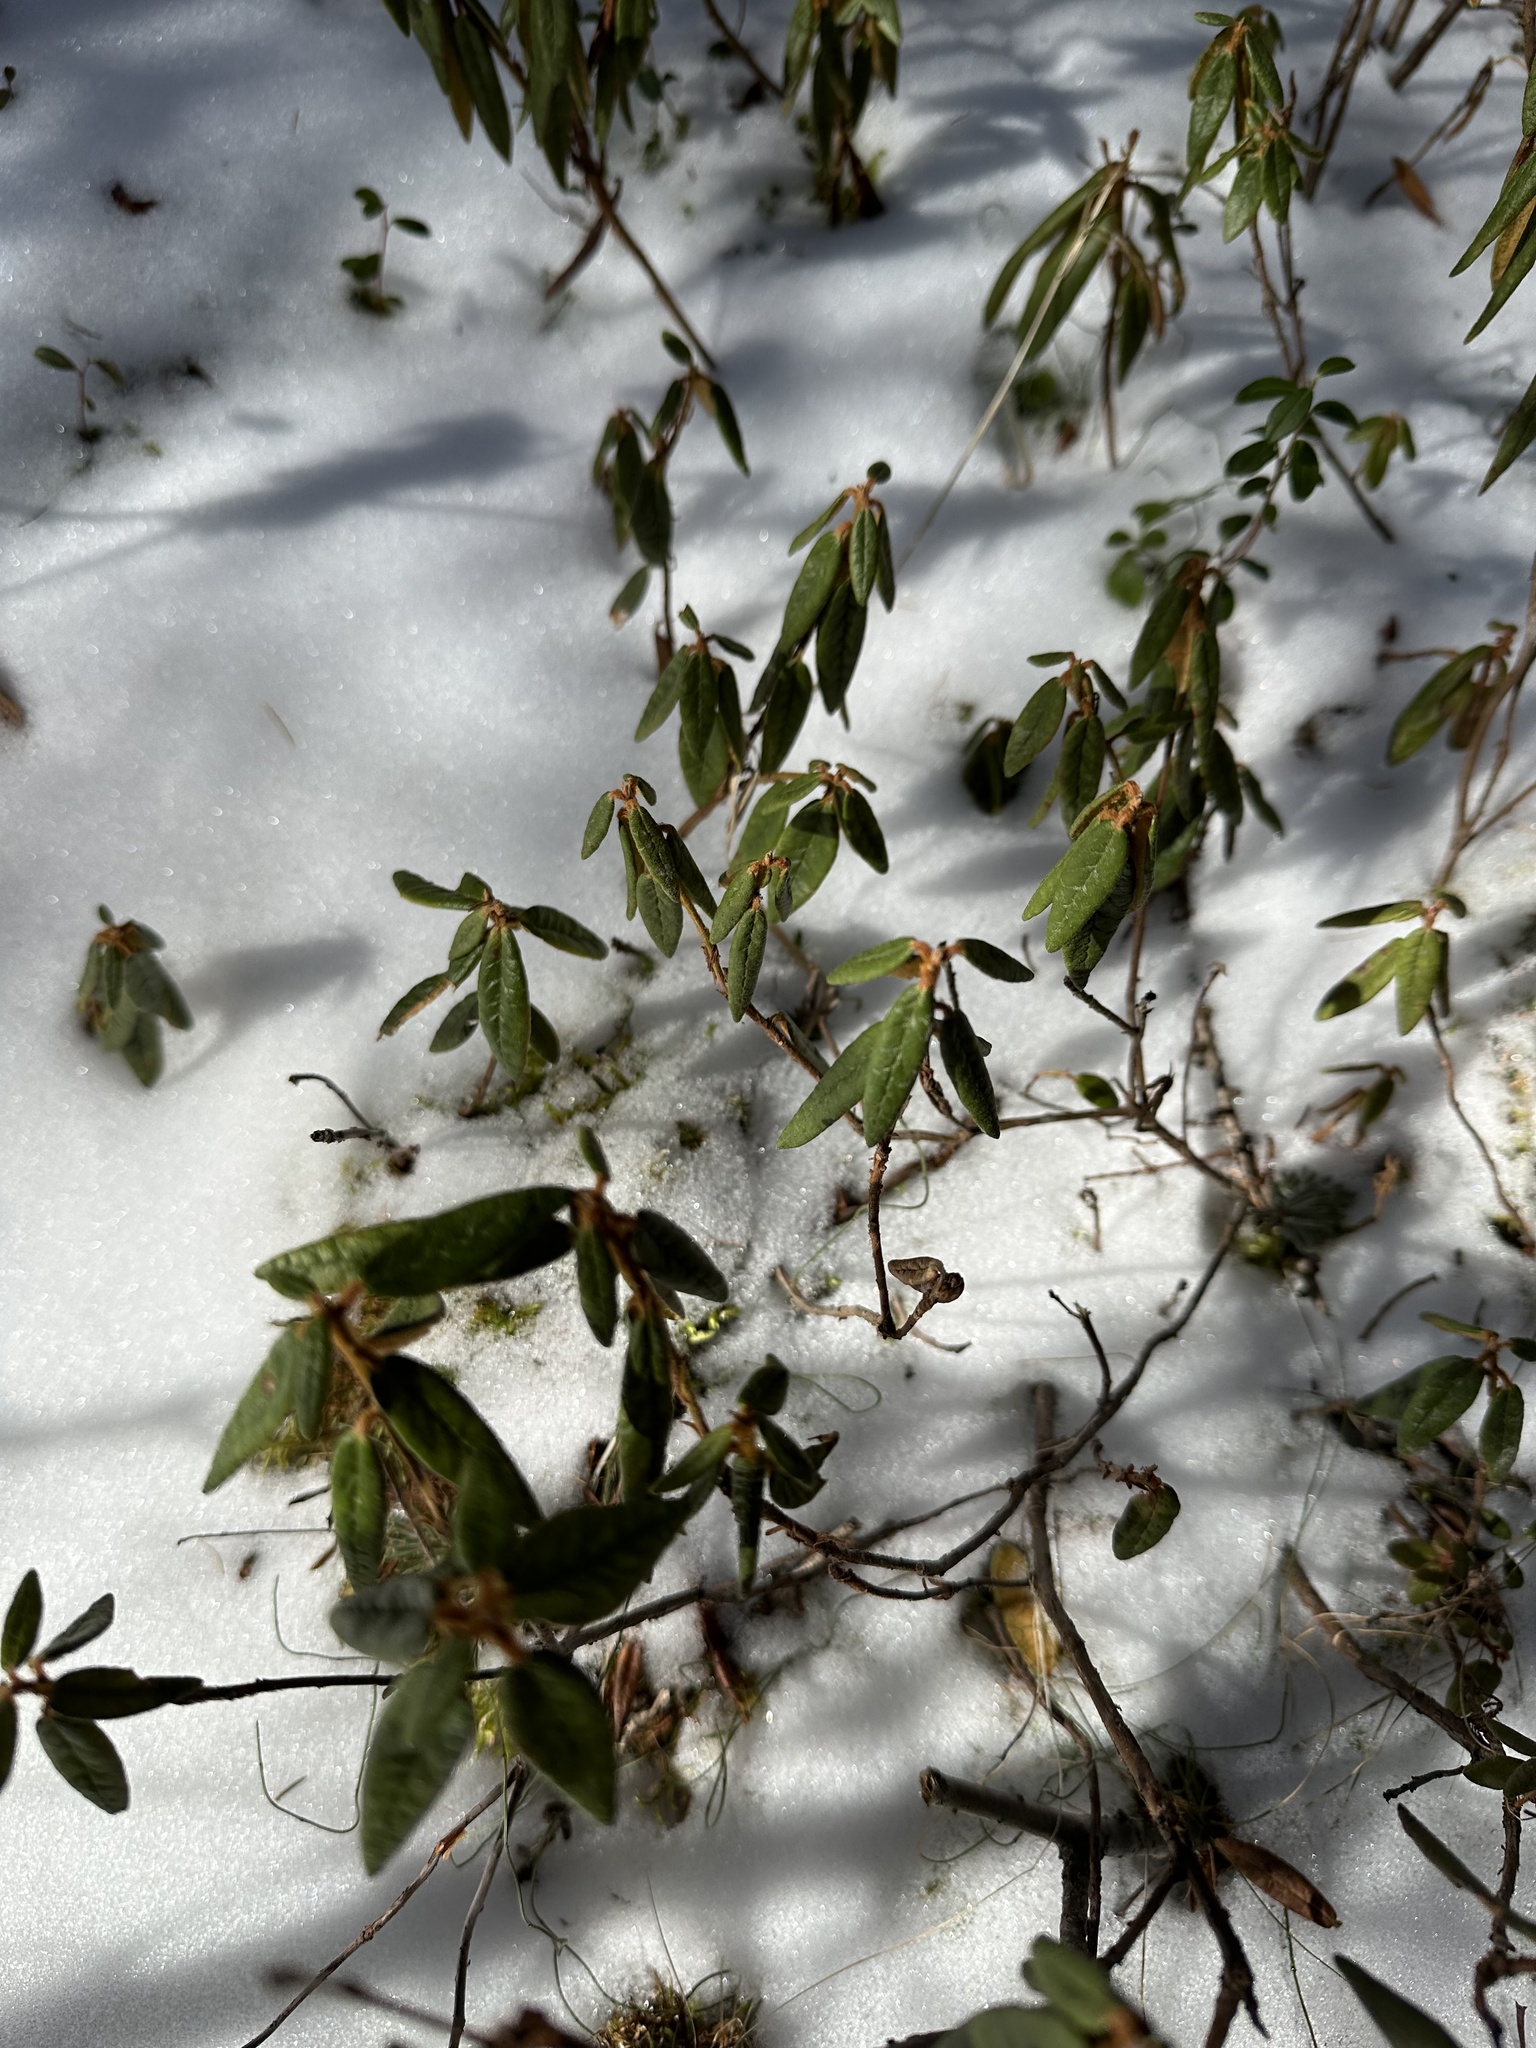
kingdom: Plantae
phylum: Tracheophyta
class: Magnoliopsida
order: Ericales
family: Ericaceae
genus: Rhododendron
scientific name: Rhododendron groenlandicum
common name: Bog labrador tea
